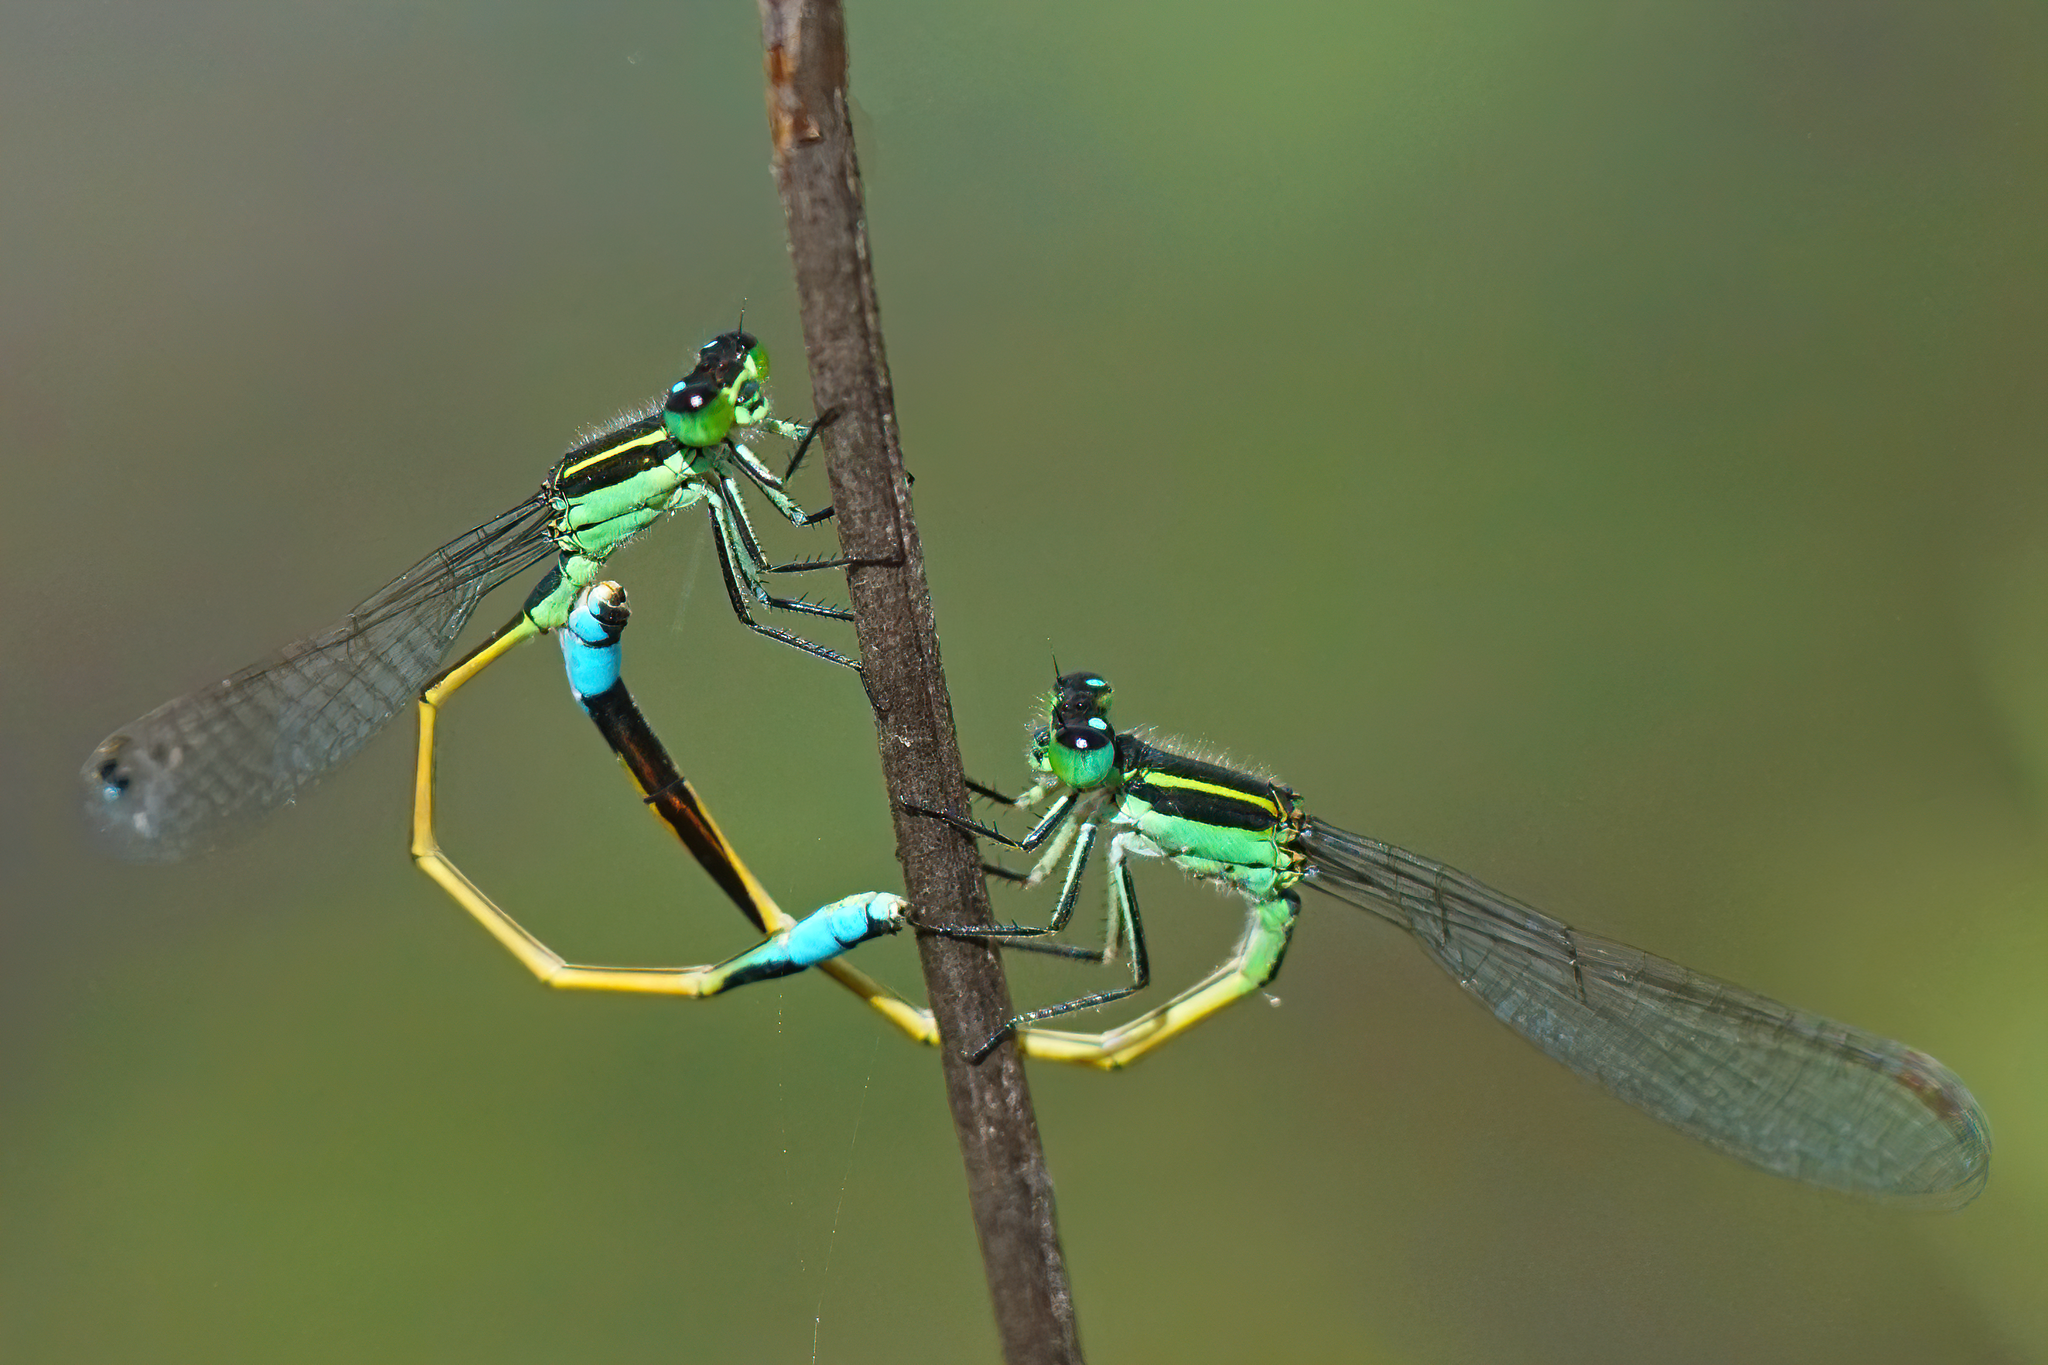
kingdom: Animalia
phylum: Arthropoda
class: Insecta
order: Odonata
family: Coenagrionidae
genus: Ischnura
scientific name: Ischnura ramburii
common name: Rambur's forktail
